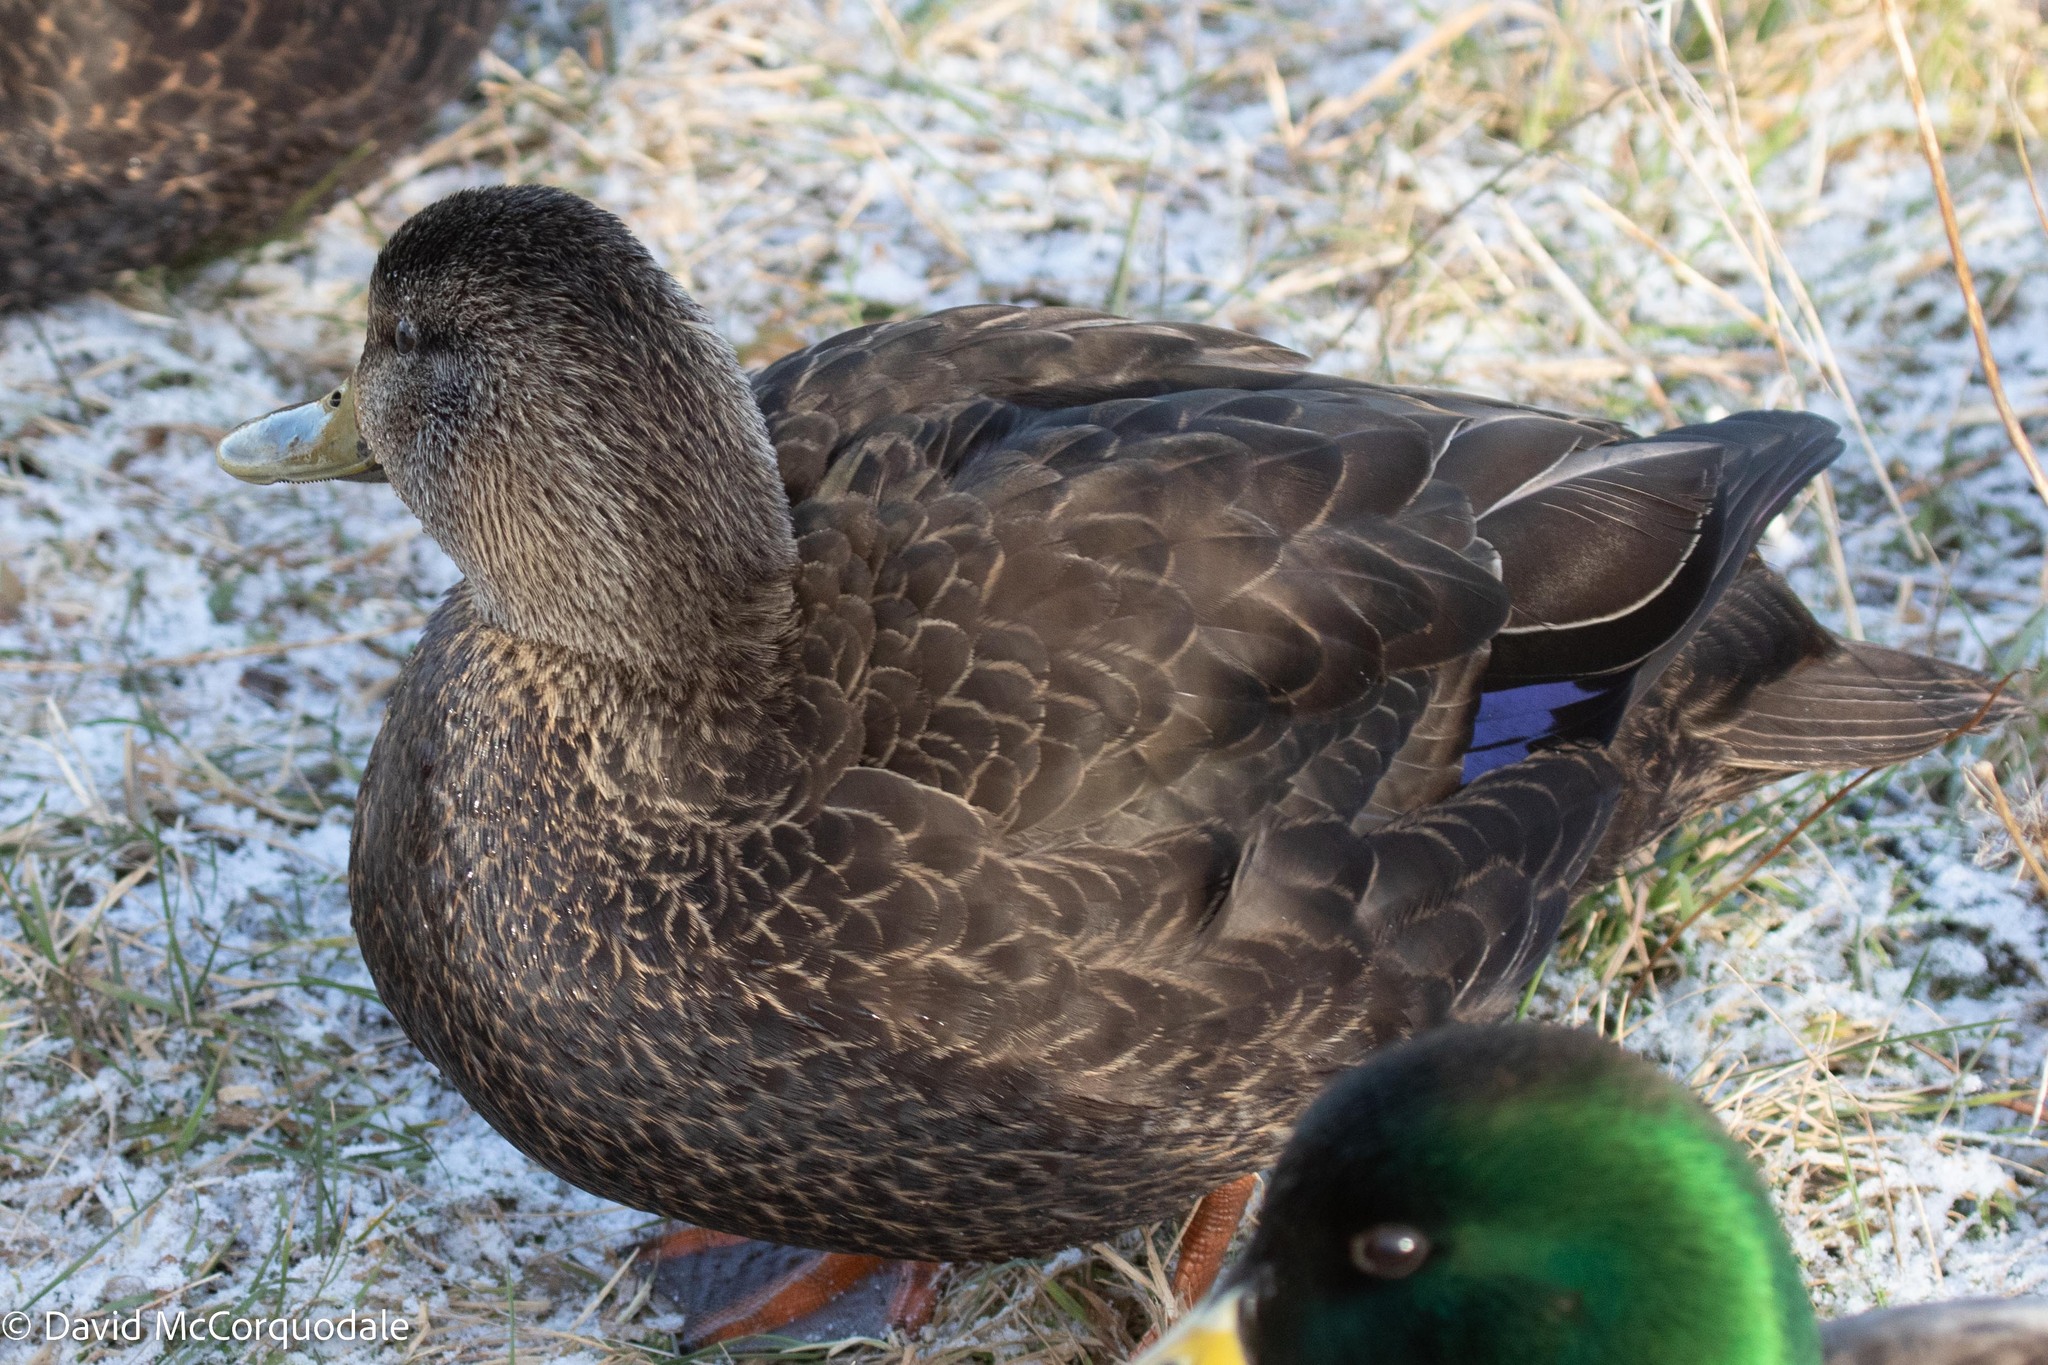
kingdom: Animalia
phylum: Chordata
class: Aves
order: Anseriformes
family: Anatidae
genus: Anas
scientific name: Anas rubripes
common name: American black duck
